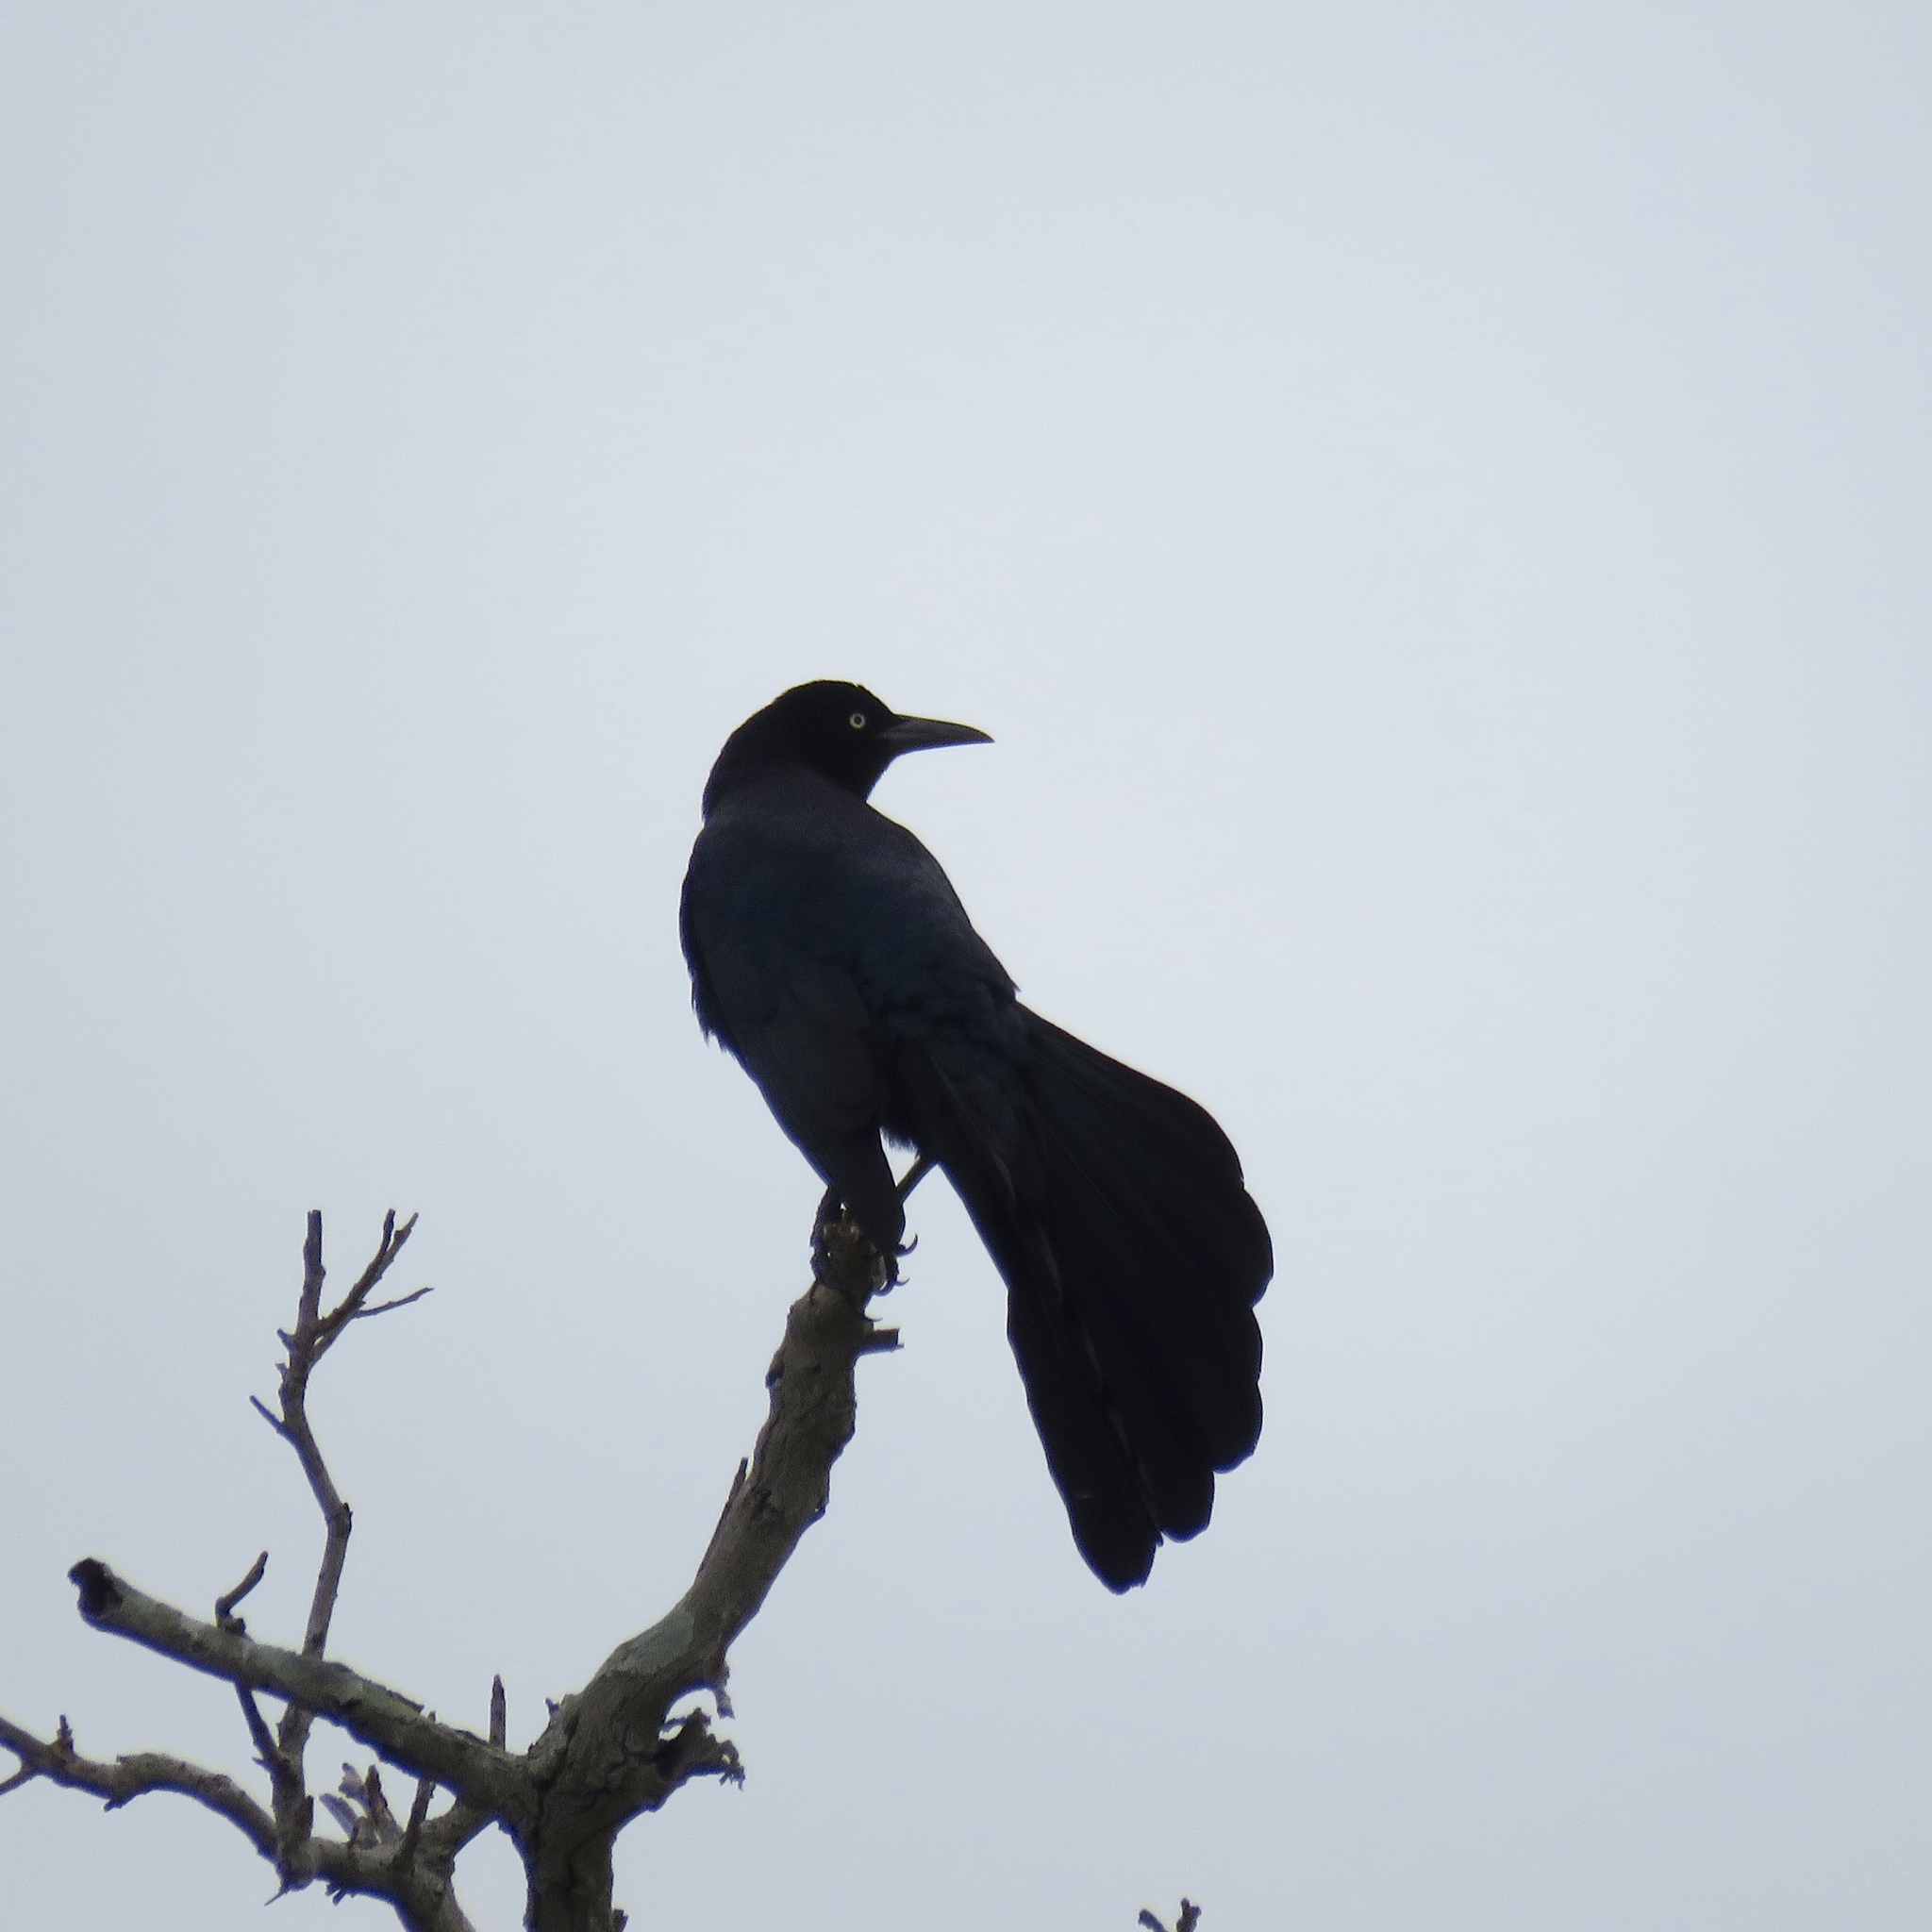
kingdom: Animalia
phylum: Chordata
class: Aves
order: Passeriformes
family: Icteridae
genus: Quiscalus
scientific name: Quiscalus major
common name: Boat-tailed grackle
